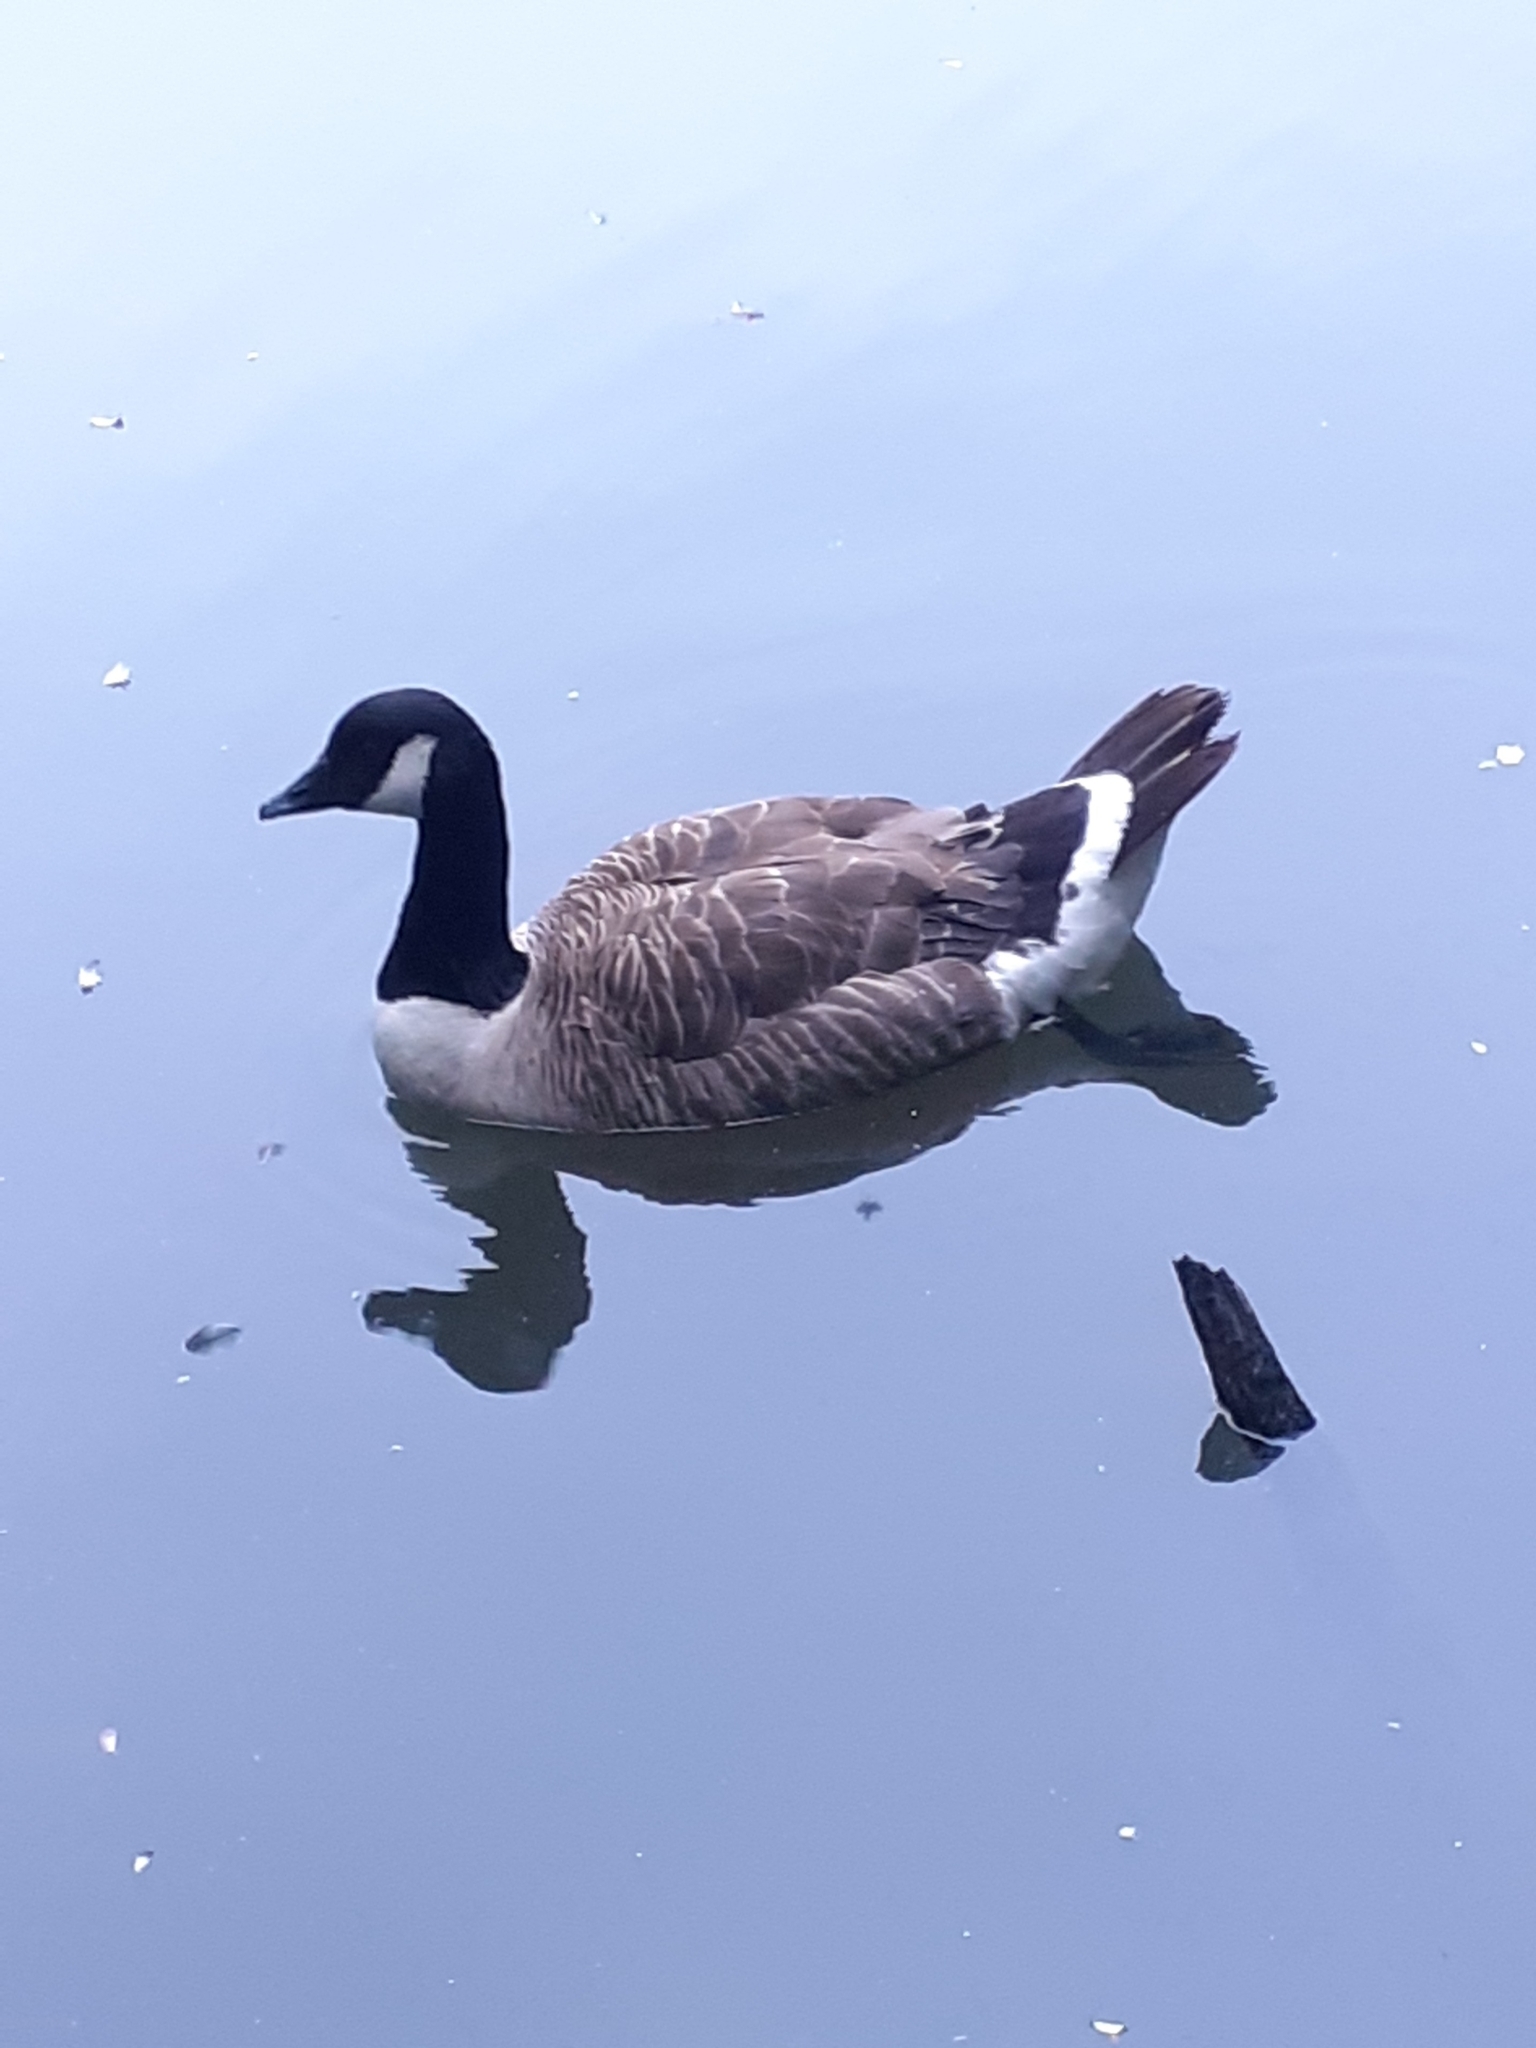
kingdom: Animalia
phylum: Chordata
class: Aves
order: Anseriformes
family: Anatidae
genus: Branta
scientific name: Branta canadensis
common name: Canada goose
